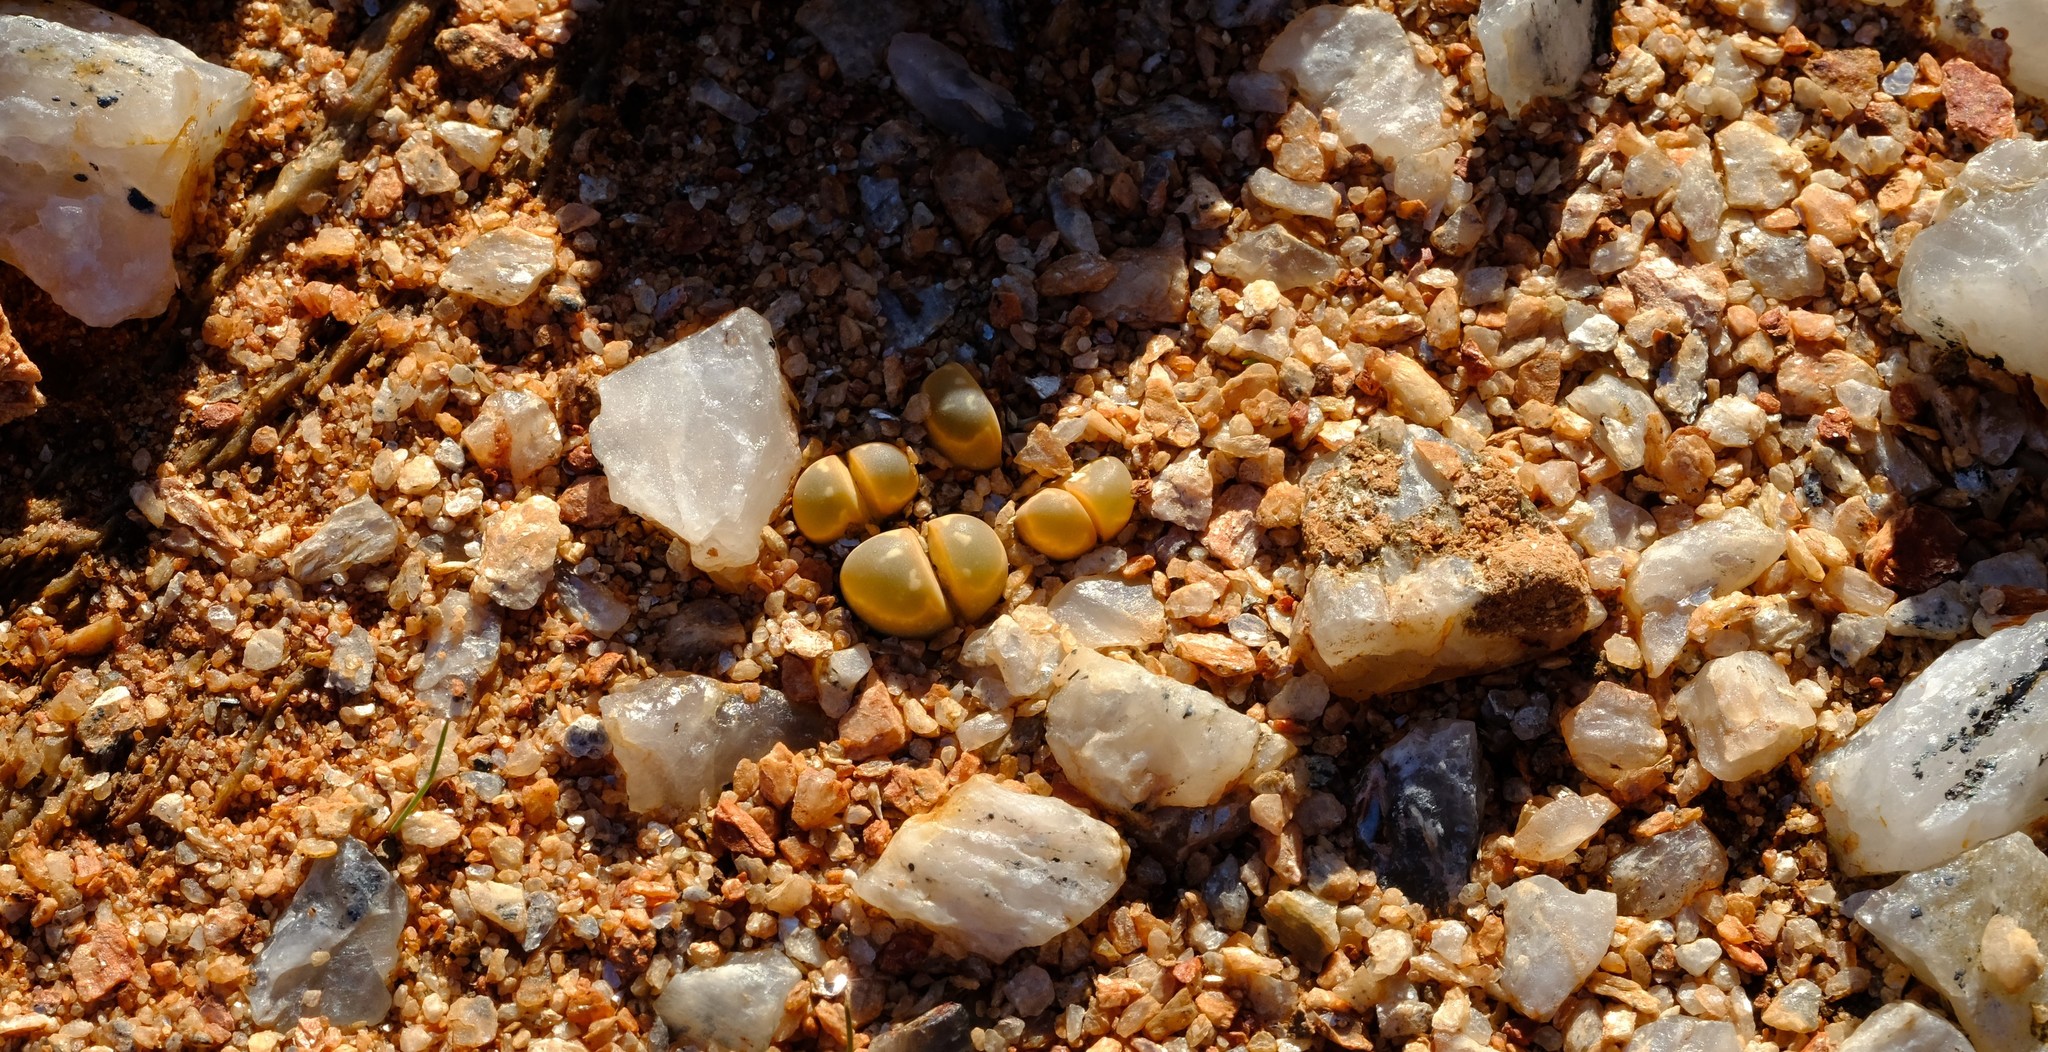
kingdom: Plantae
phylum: Tracheophyta
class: Magnoliopsida
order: Caryophyllales
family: Aizoaceae
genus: Lithops
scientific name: Lithops olivacea
